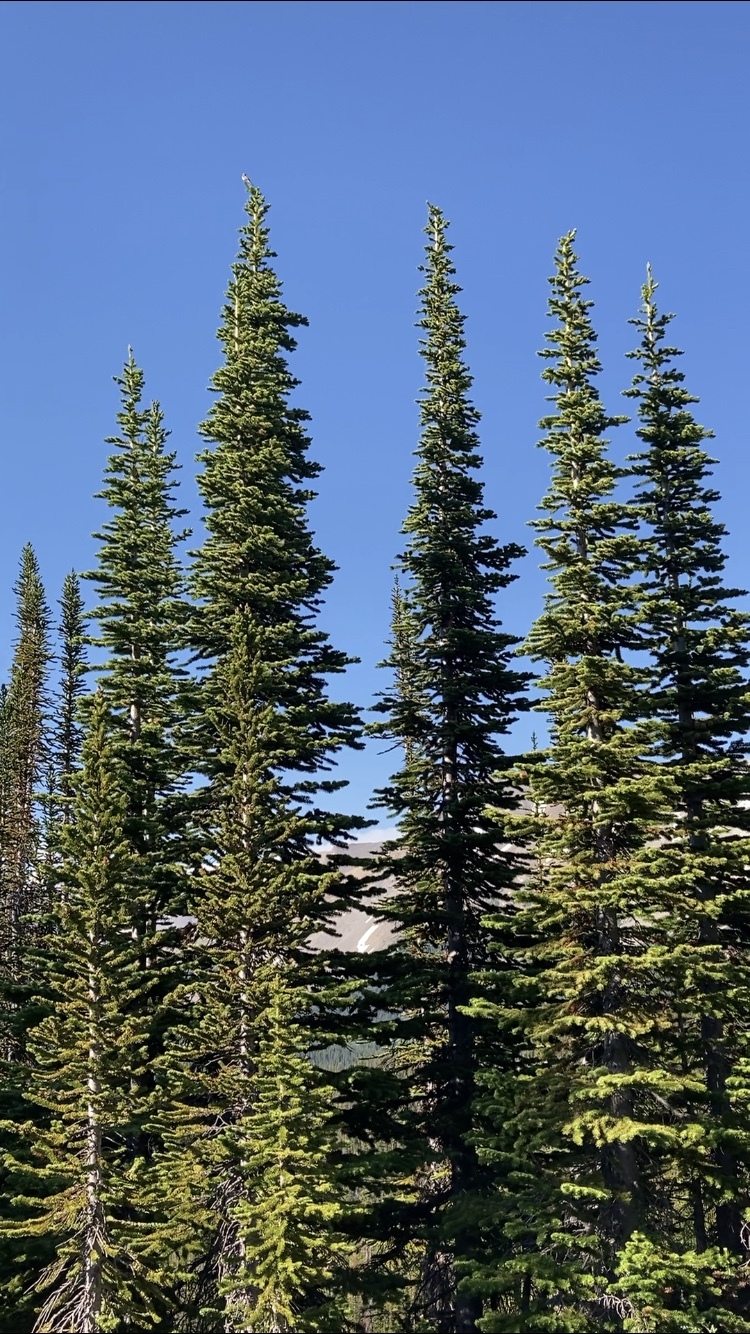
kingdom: Animalia
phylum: Chordata
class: Aves
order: Passeriformes
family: Passerellidae
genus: Passerella
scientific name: Passerella iliaca
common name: Fox sparrow
